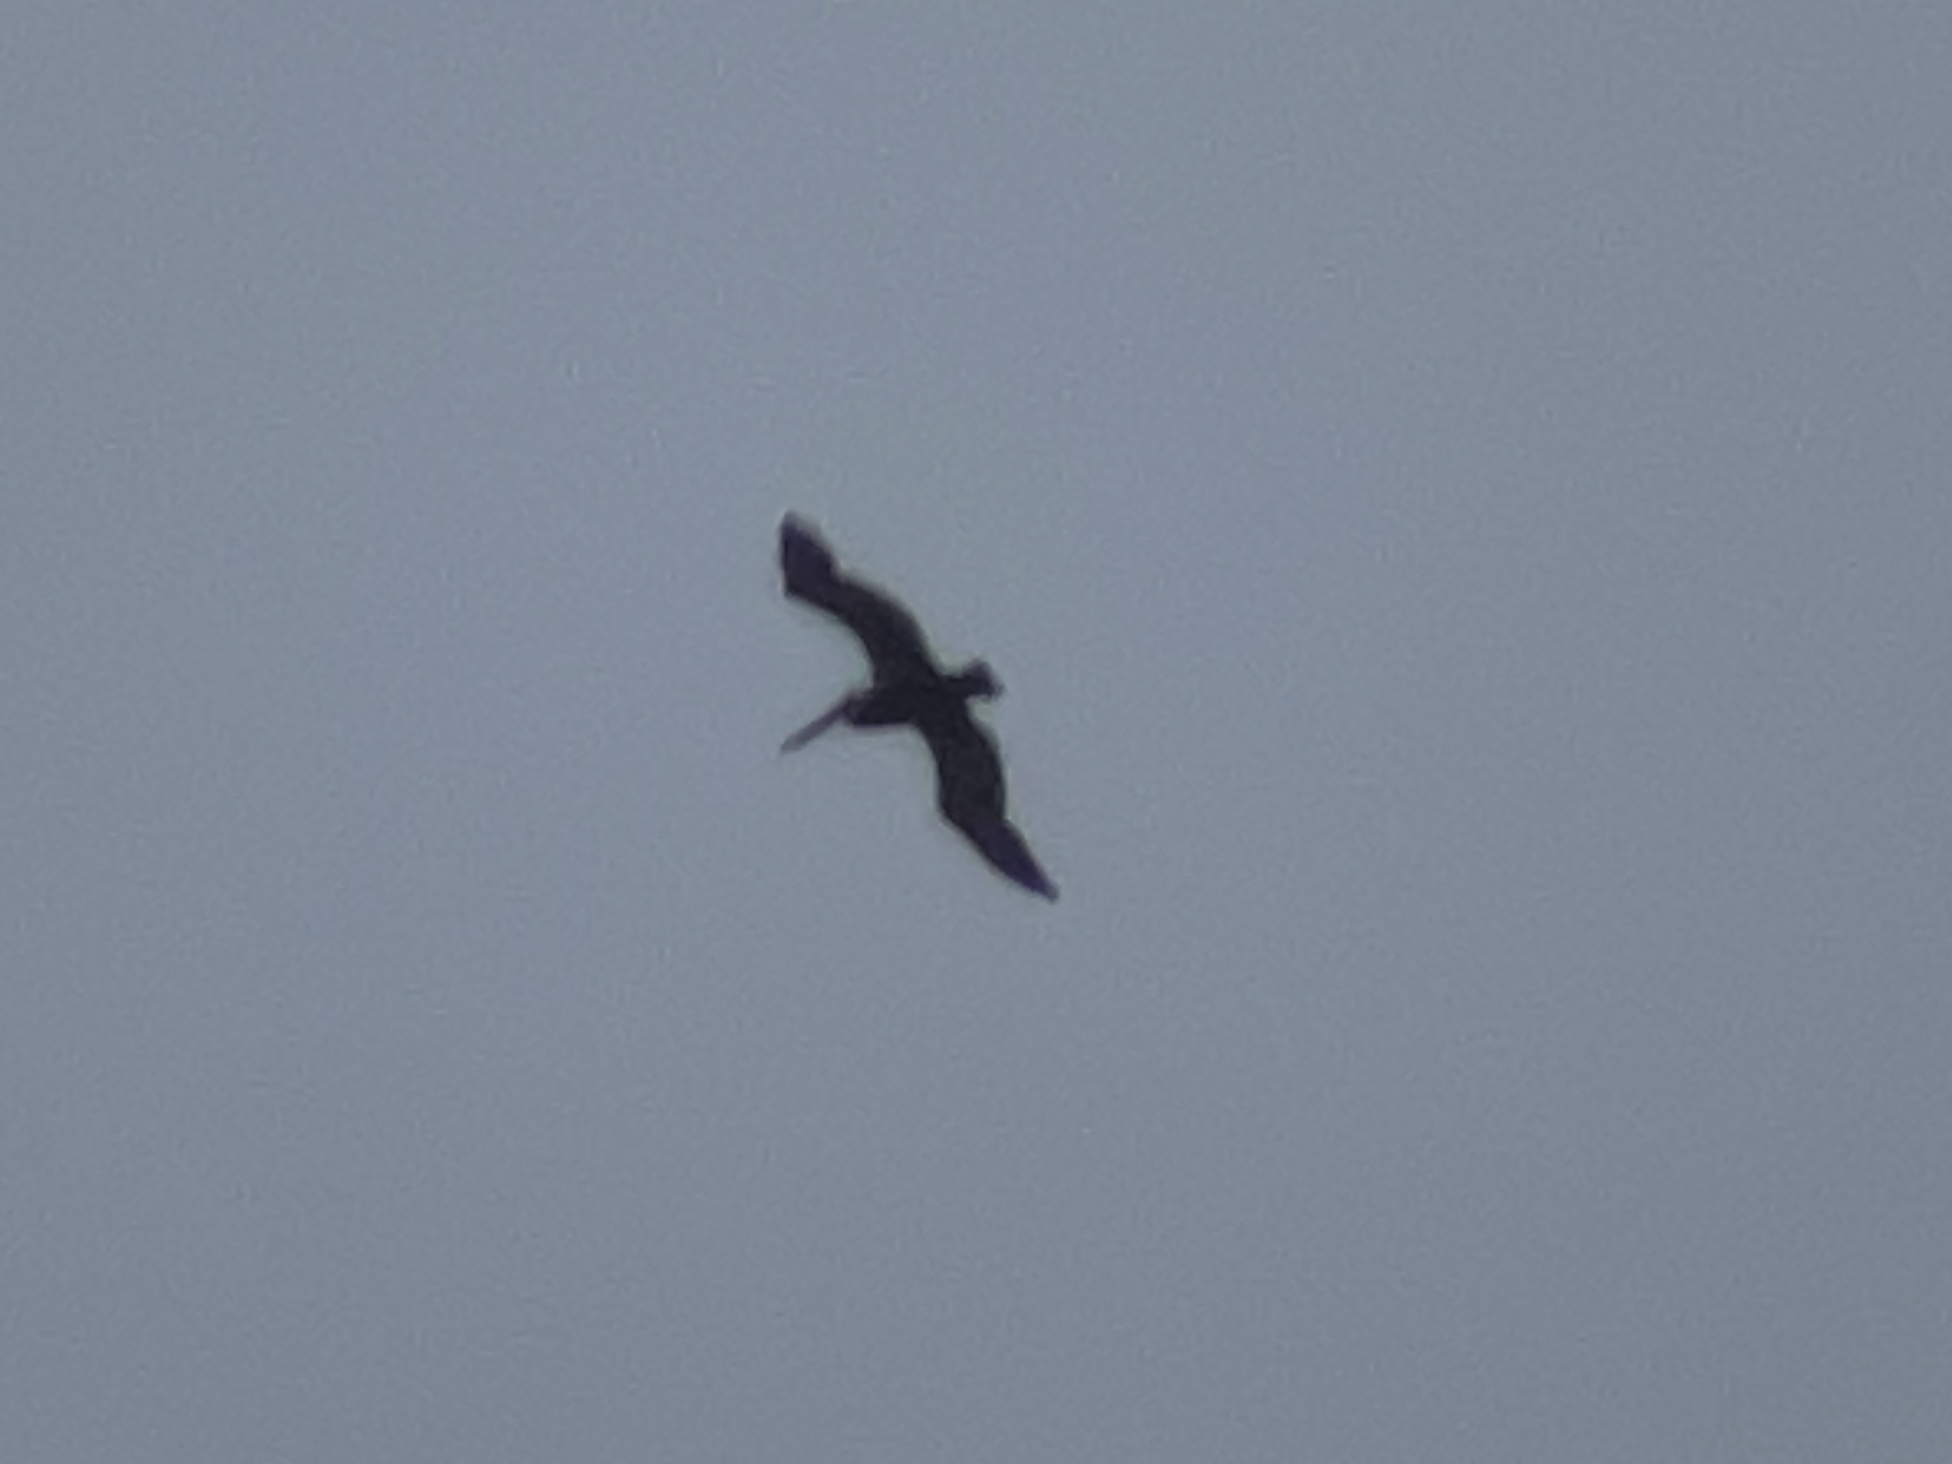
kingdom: Animalia
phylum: Chordata
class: Aves
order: Pelecaniformes
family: Pelecanidae
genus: Pelecanus
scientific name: Pelecanus occidentalis
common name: Brown pelican
